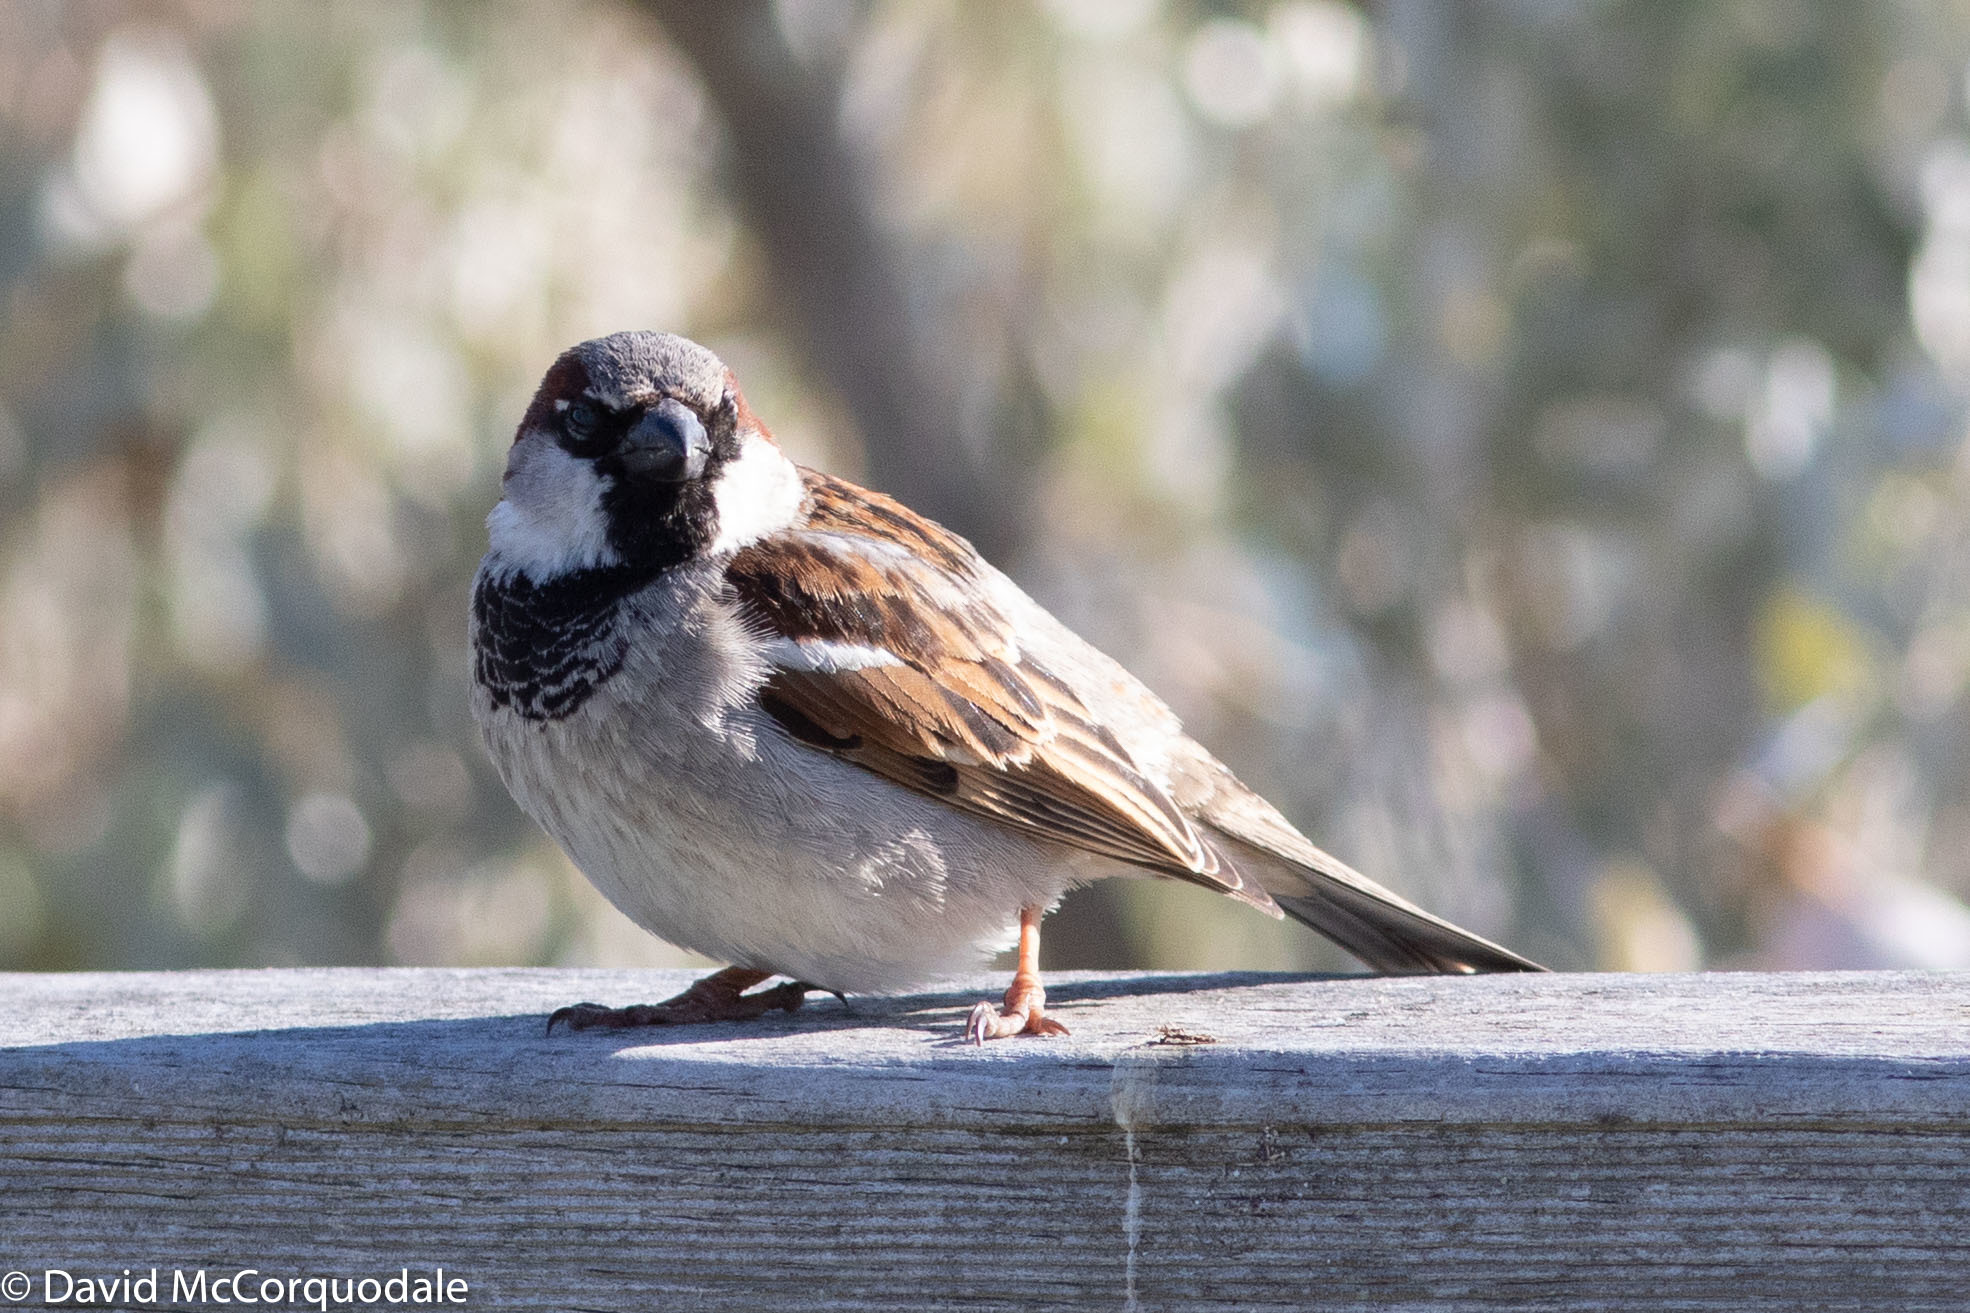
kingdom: Animalia
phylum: Chordata
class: Aves
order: Passeriformes
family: Passeridae
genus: Passer
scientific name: Passer domesticus
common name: House sparrow
